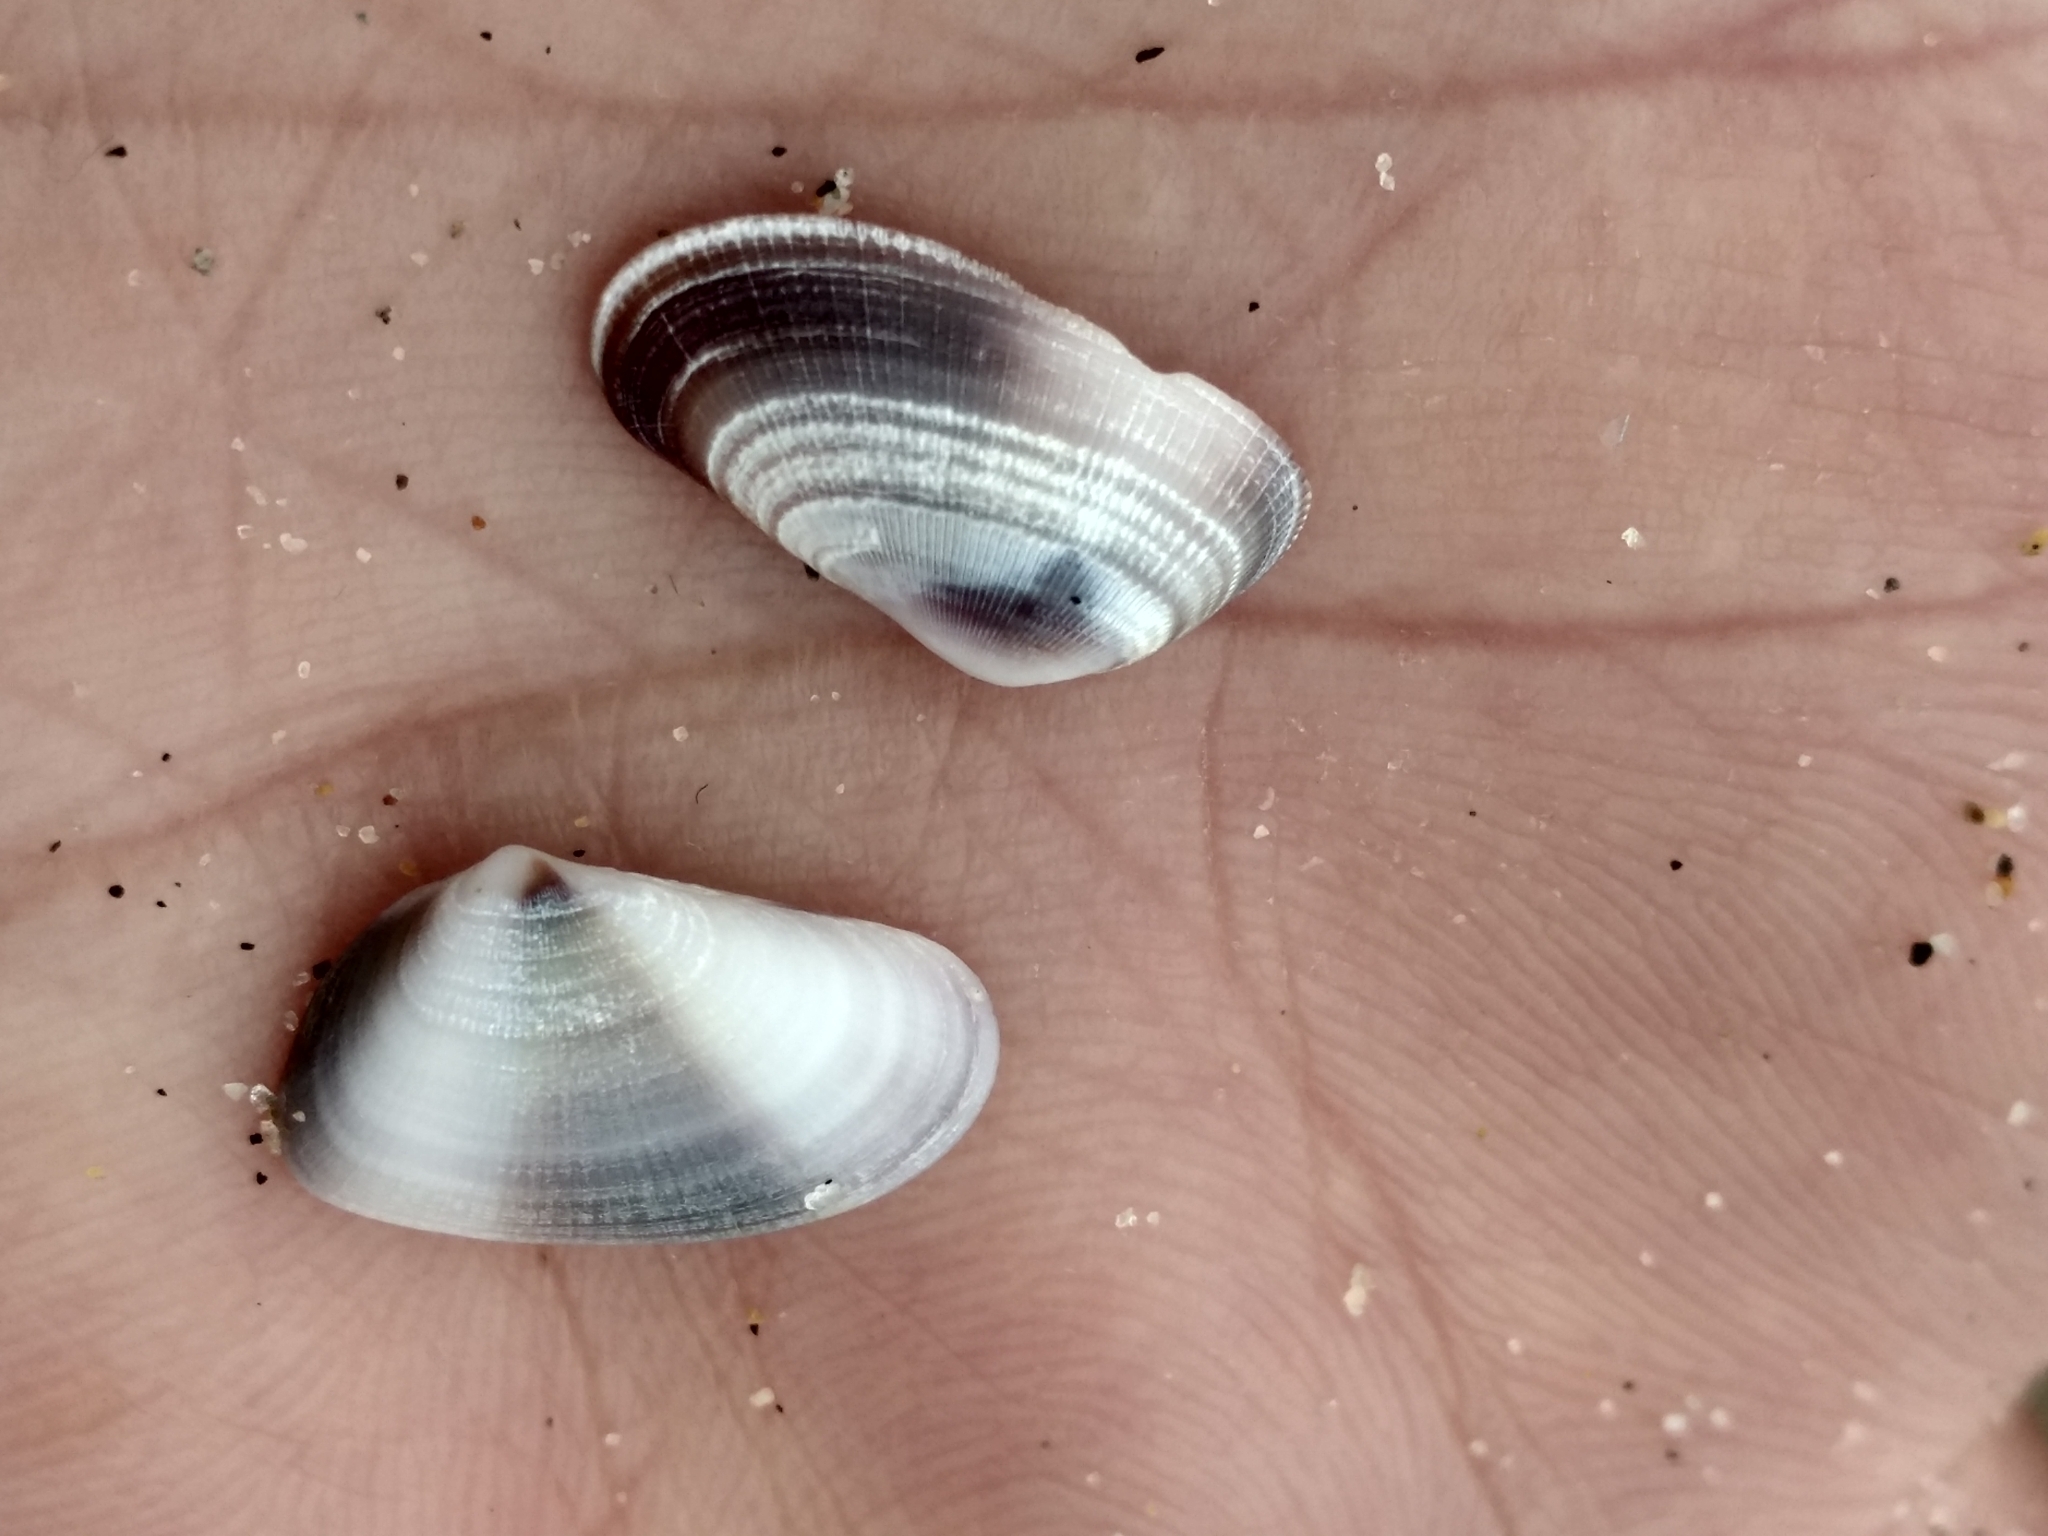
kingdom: Animalia
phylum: Mollusca
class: Bivalvia
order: Cardiida
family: Donacidae
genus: Donax
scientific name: Donax gouldii
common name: Gould beanclam
